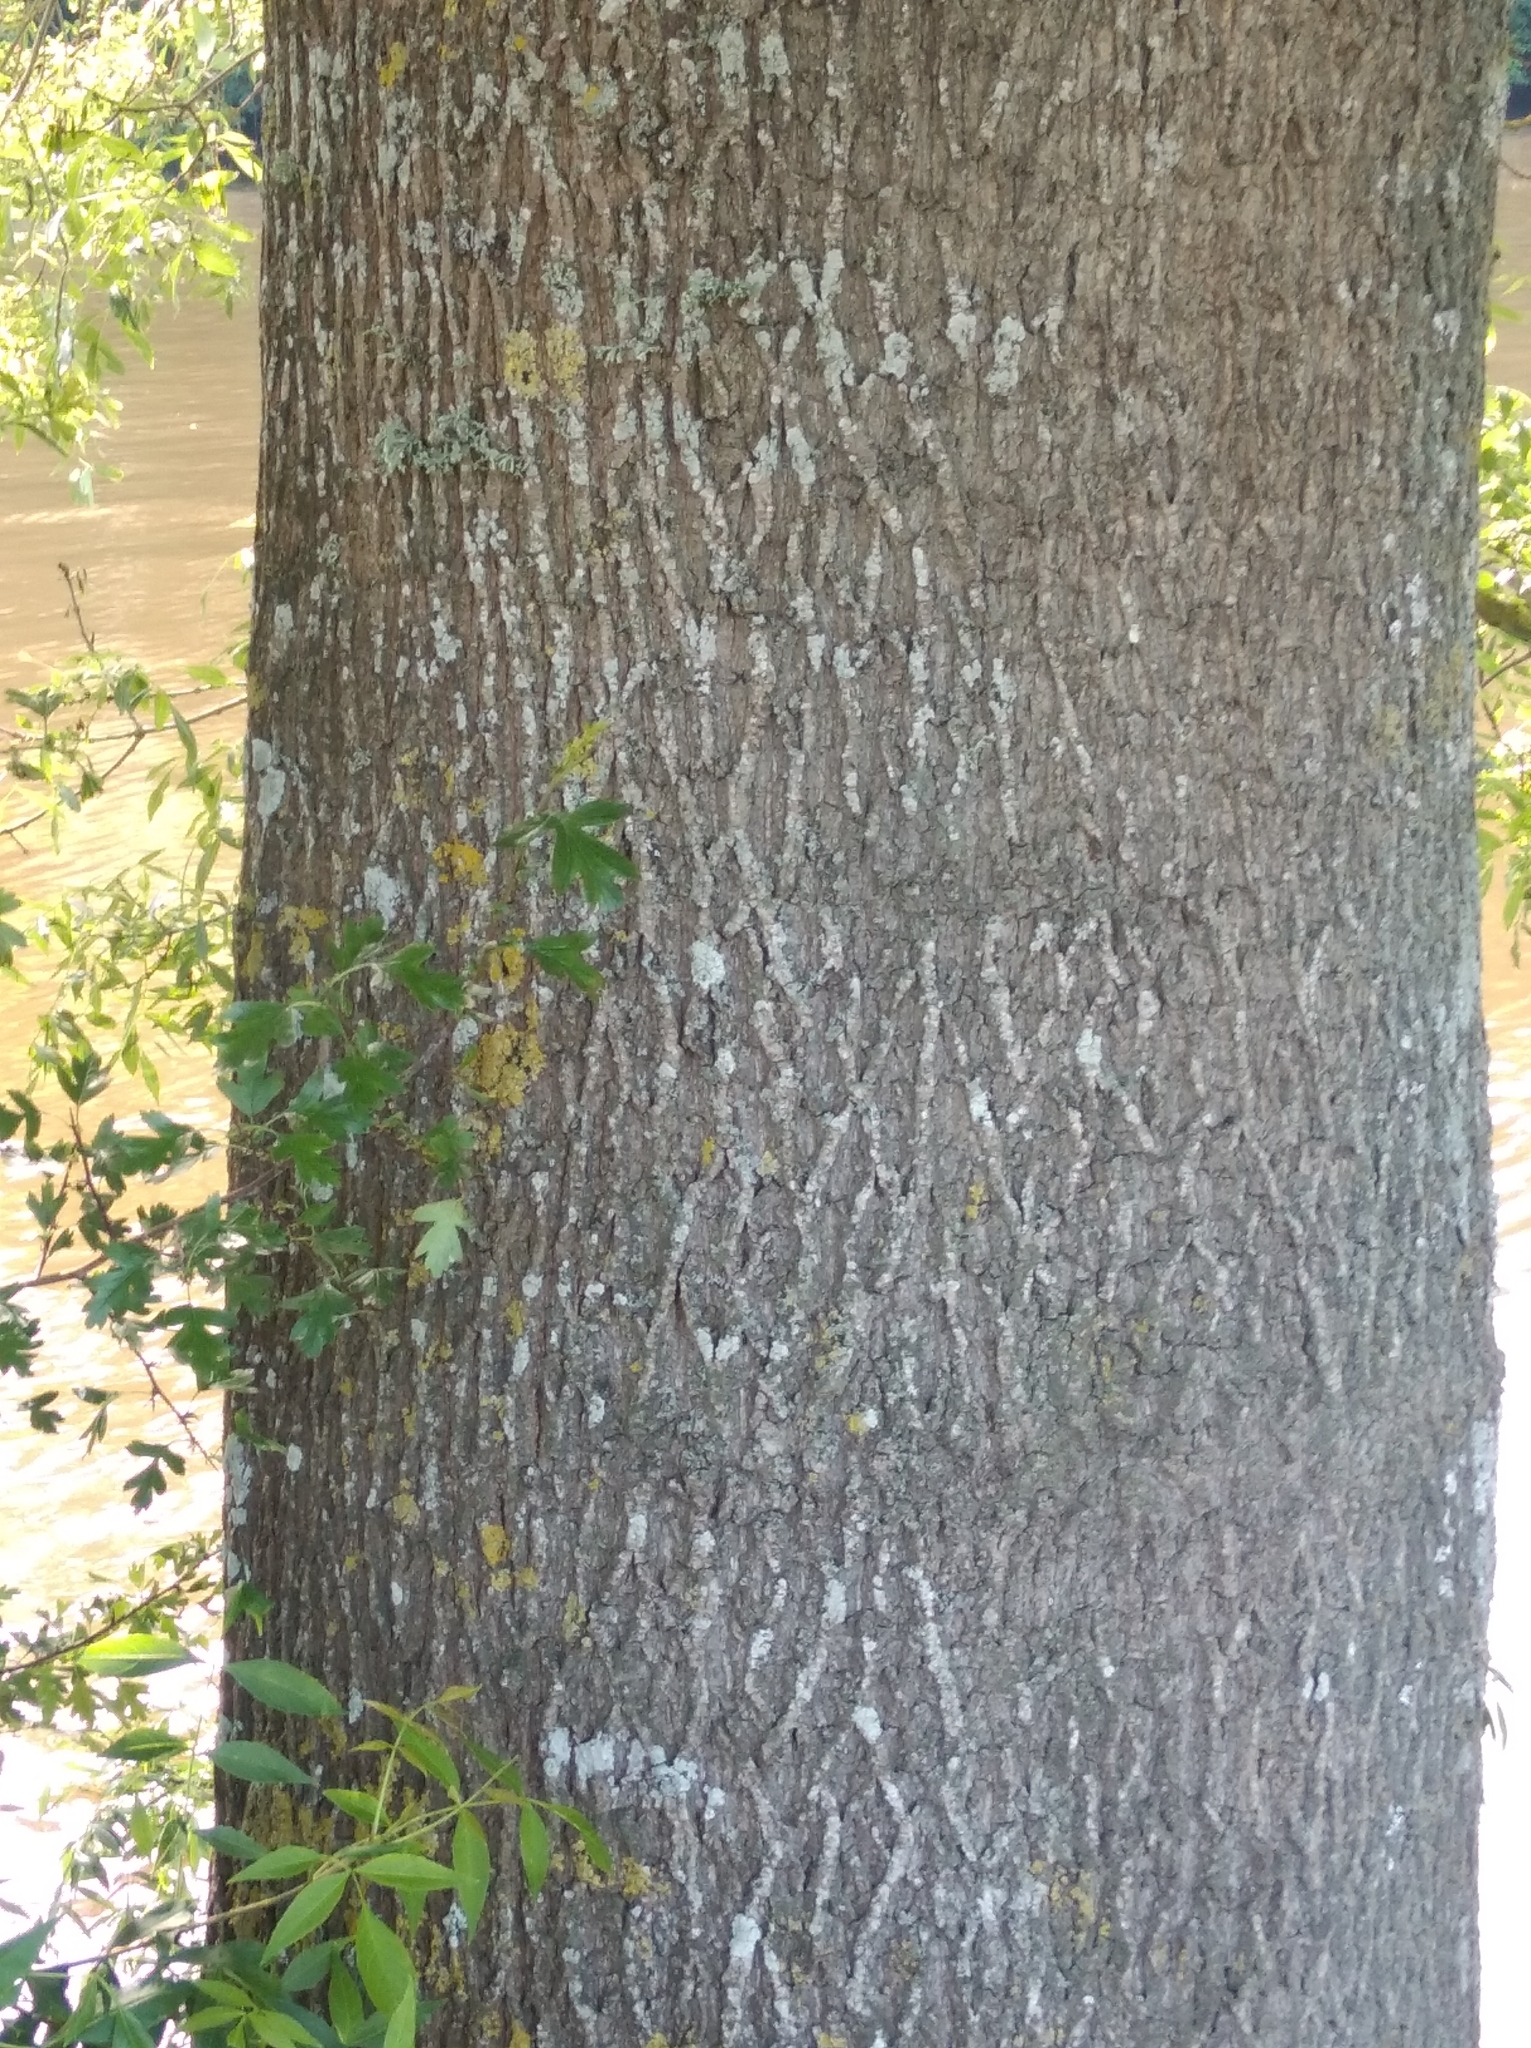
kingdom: Plantae
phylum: Tracheophyta
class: Magnoliopsida
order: Lamiales
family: Oleaceae
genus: Fraxinus
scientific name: Fraxinus excelsior
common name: European ash
